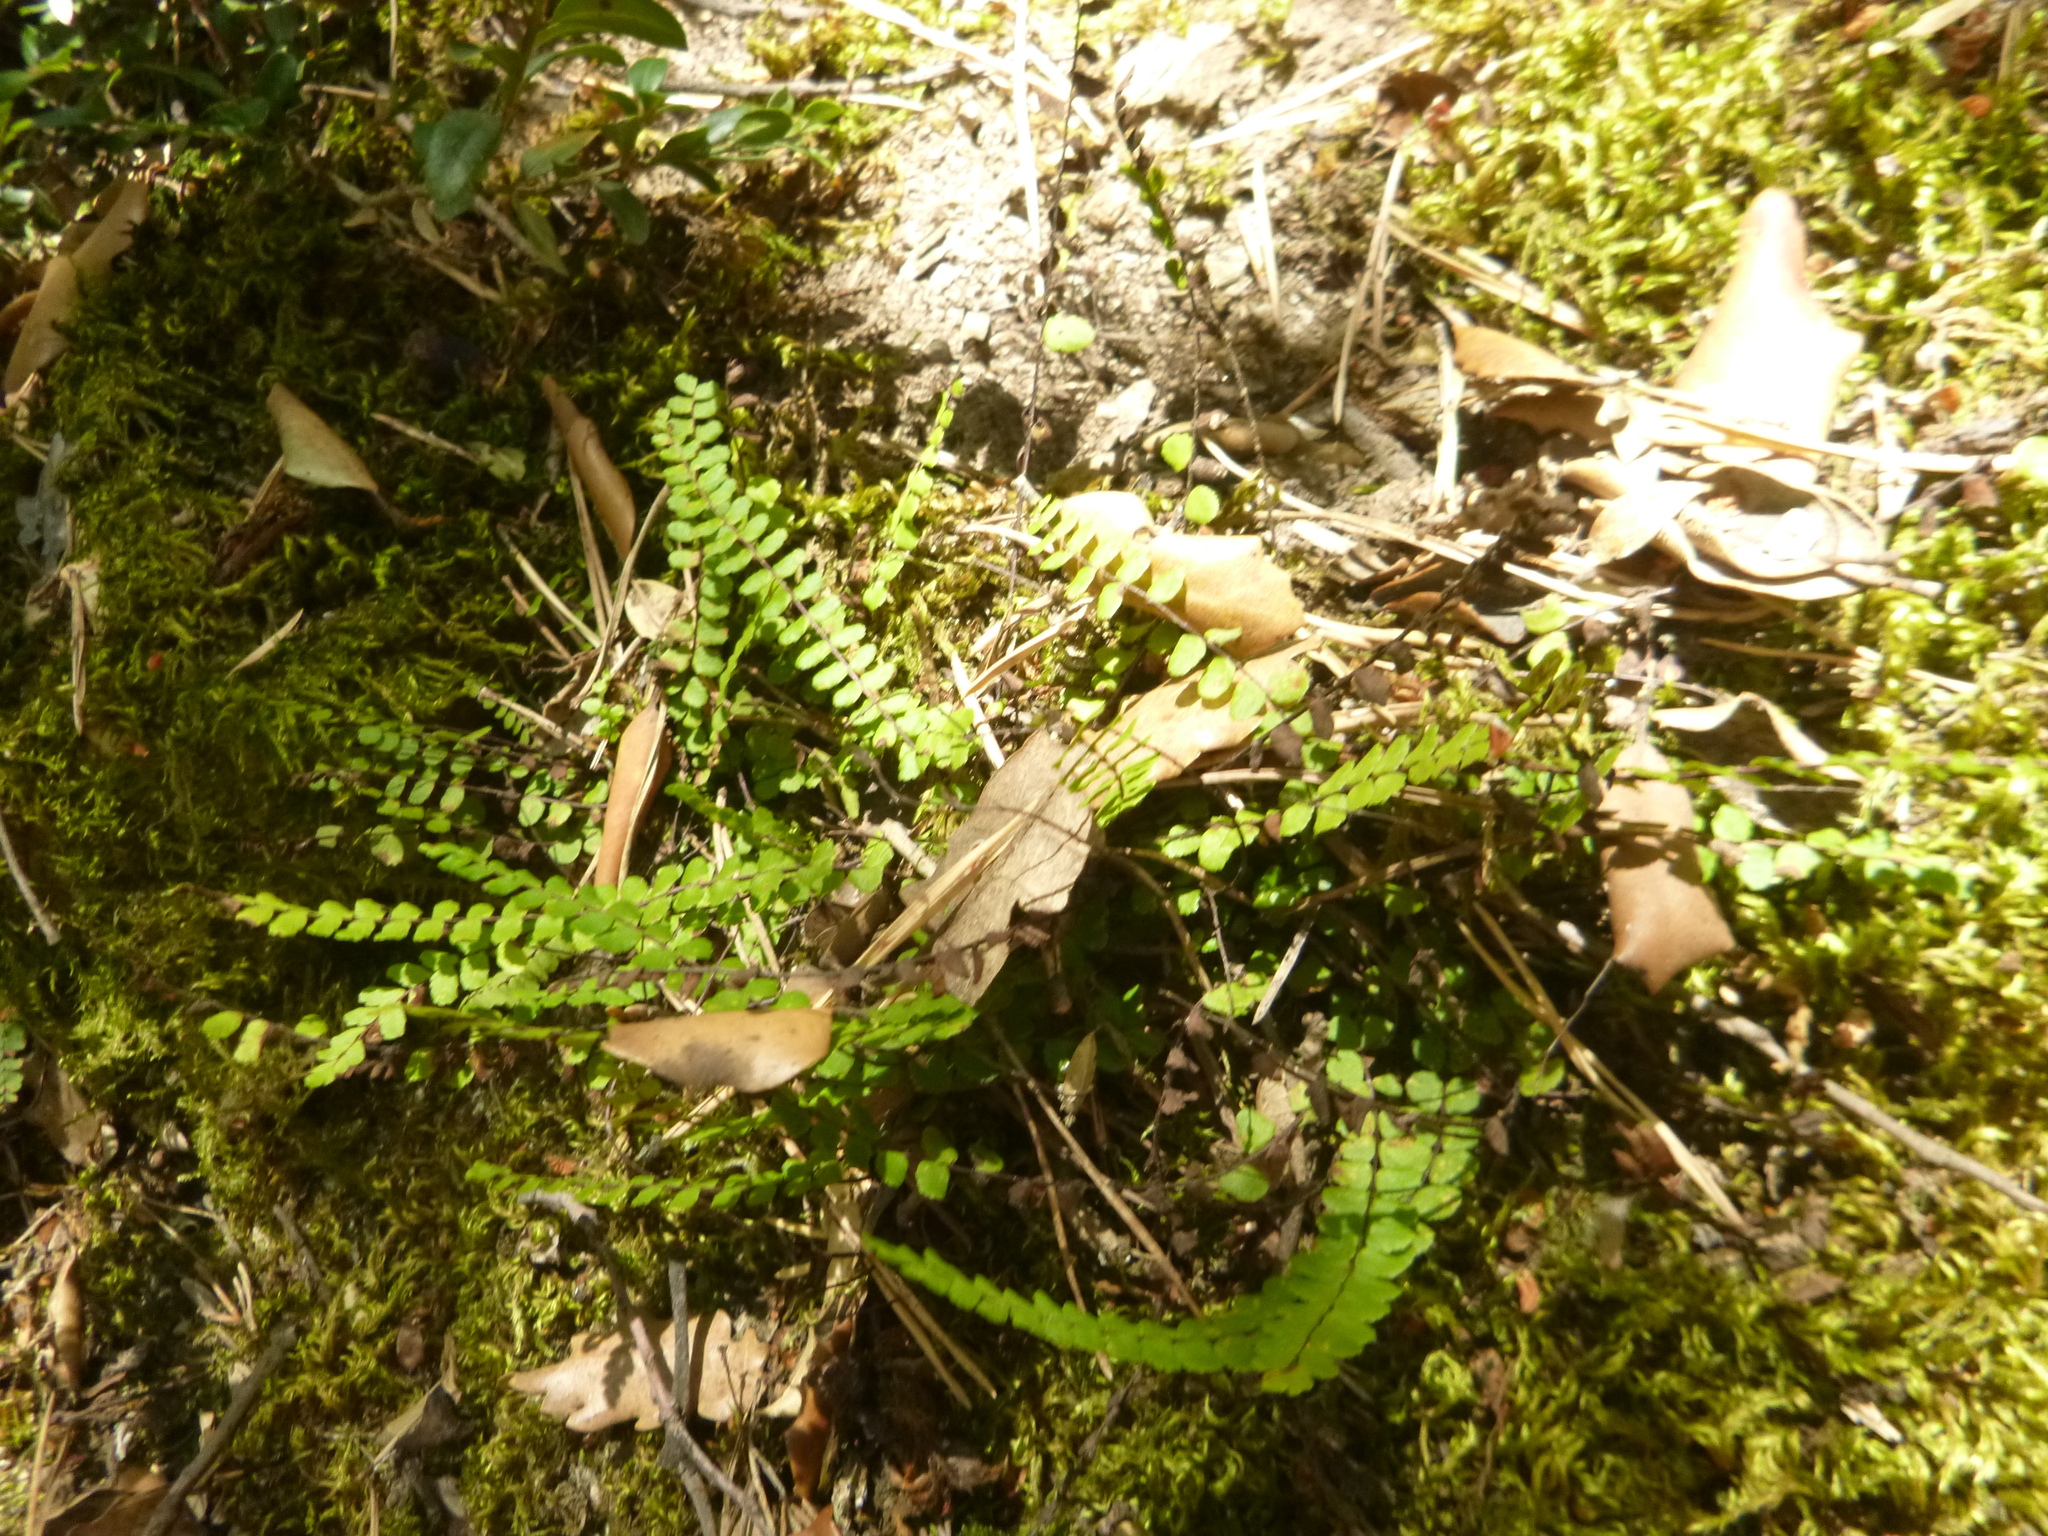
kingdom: Plantae
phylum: Tracheophyta
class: Polypodiopsida
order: Polypodiales
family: Aspleniaceae
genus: Asplenium
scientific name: Asplenium trichomanes
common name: Maidenhair spleenwort
